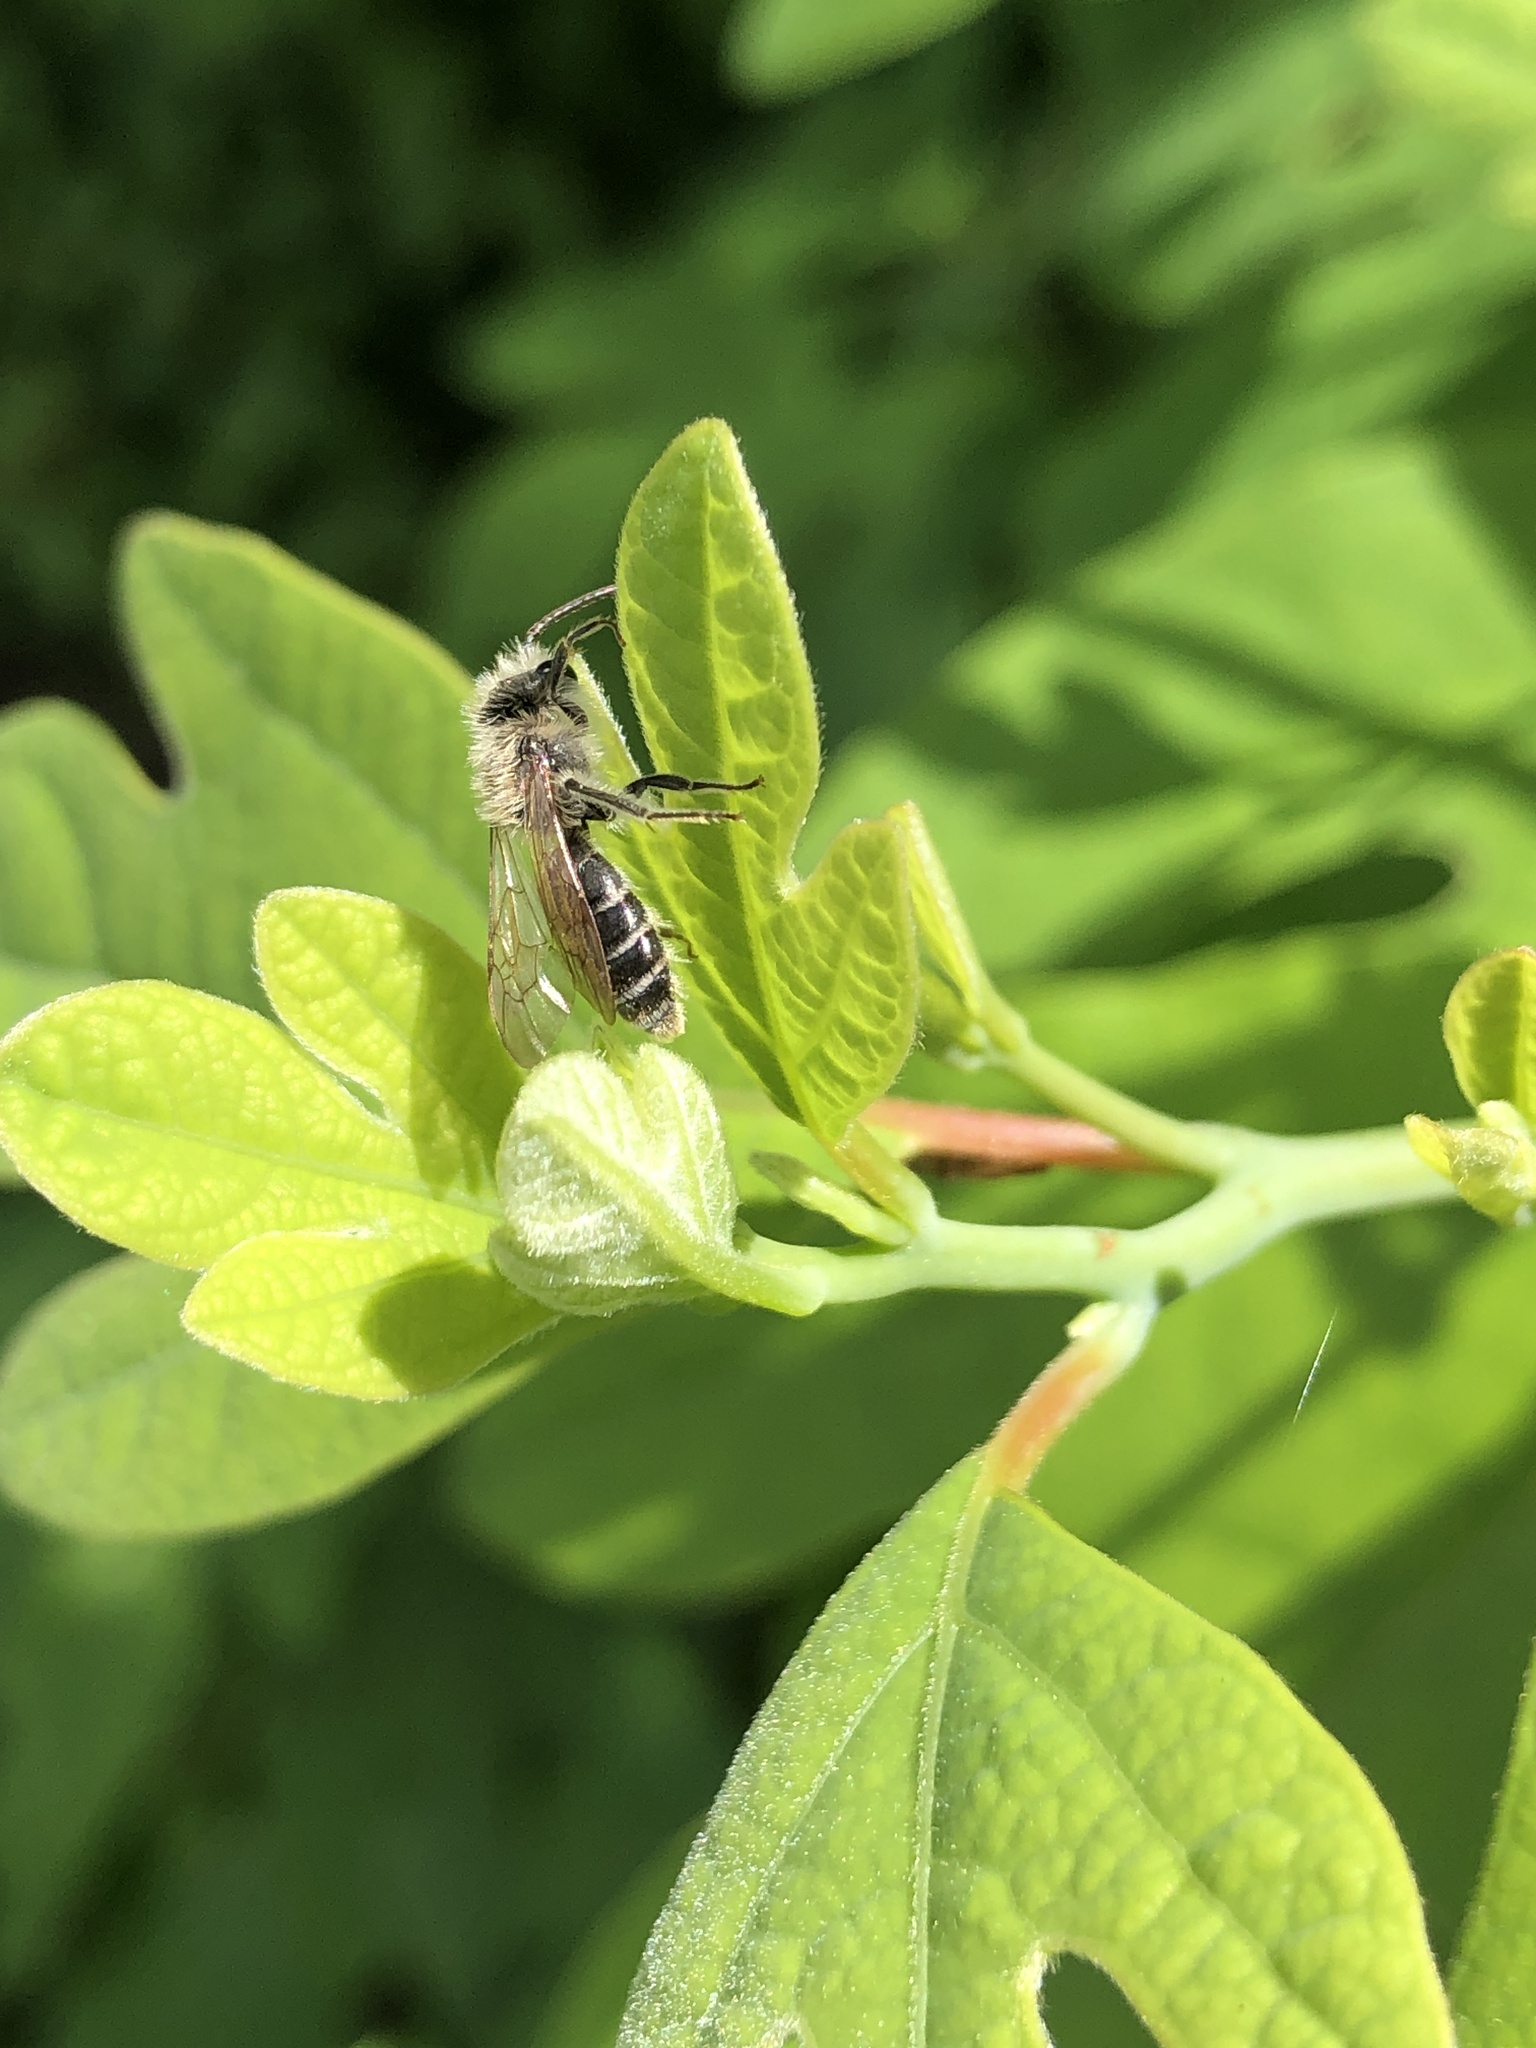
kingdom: Animalia
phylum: Arthropoda
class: Insecta
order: Hymenoptera
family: Andrenidae
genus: Andrena
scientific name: Andrena wilkella
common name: Wilke's mining bee
